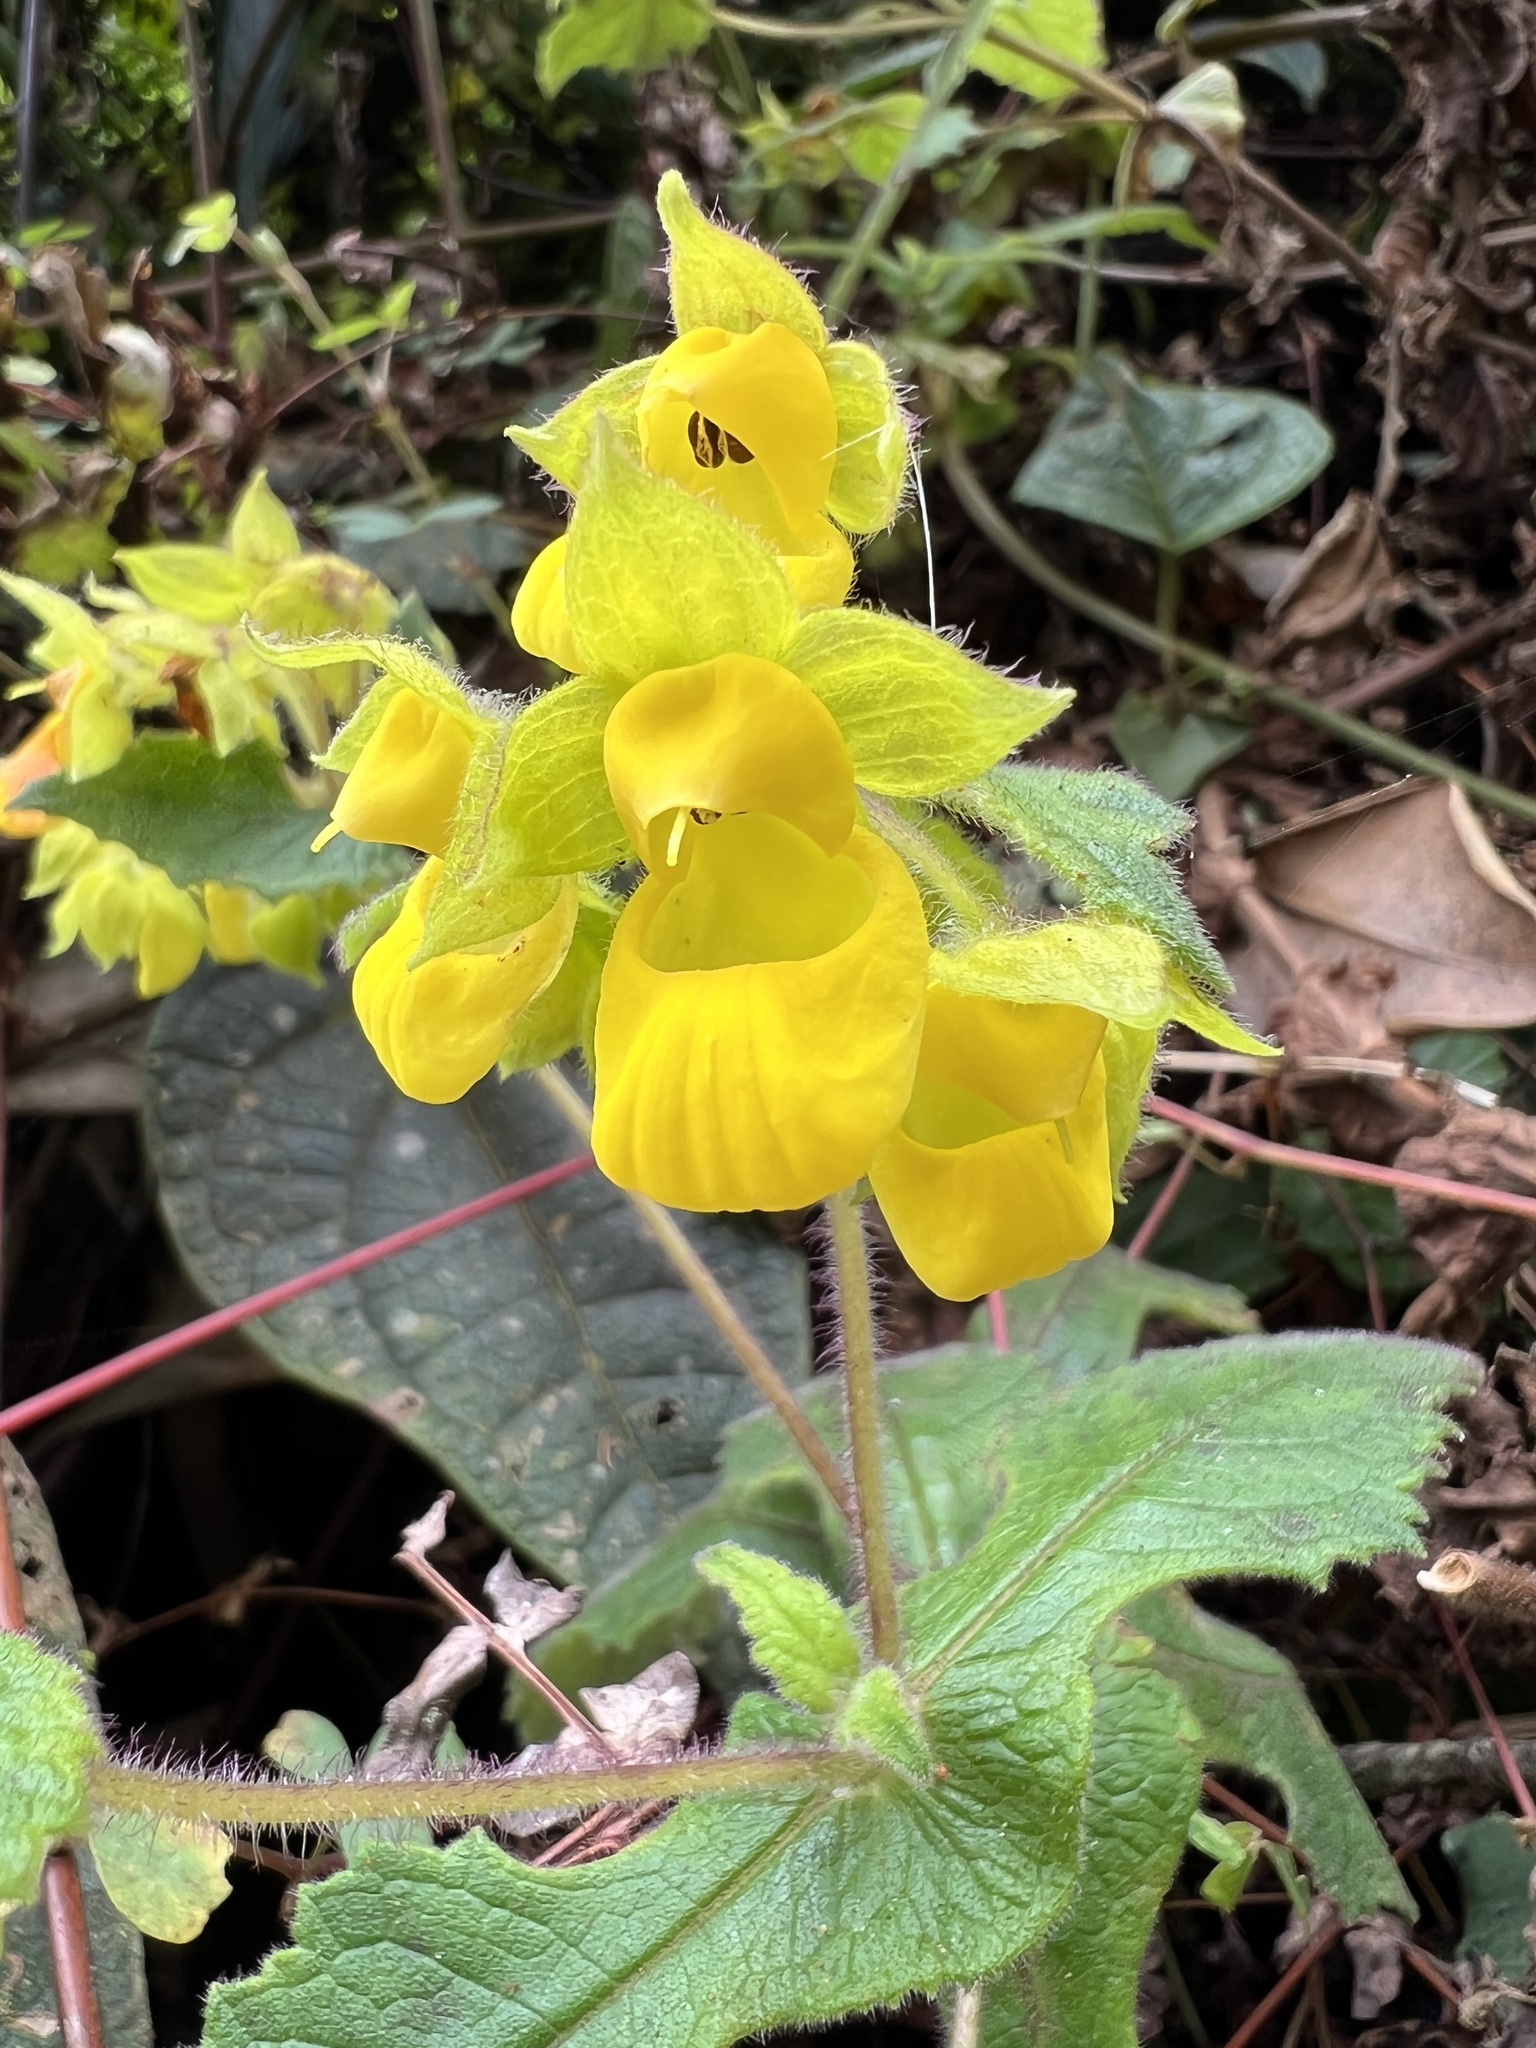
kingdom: Plantae
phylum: Tracheophyta
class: Magnoliopsida
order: Lamiales
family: Calceolariaceae
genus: Calceolaria
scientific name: Calceolaria perfoliata
